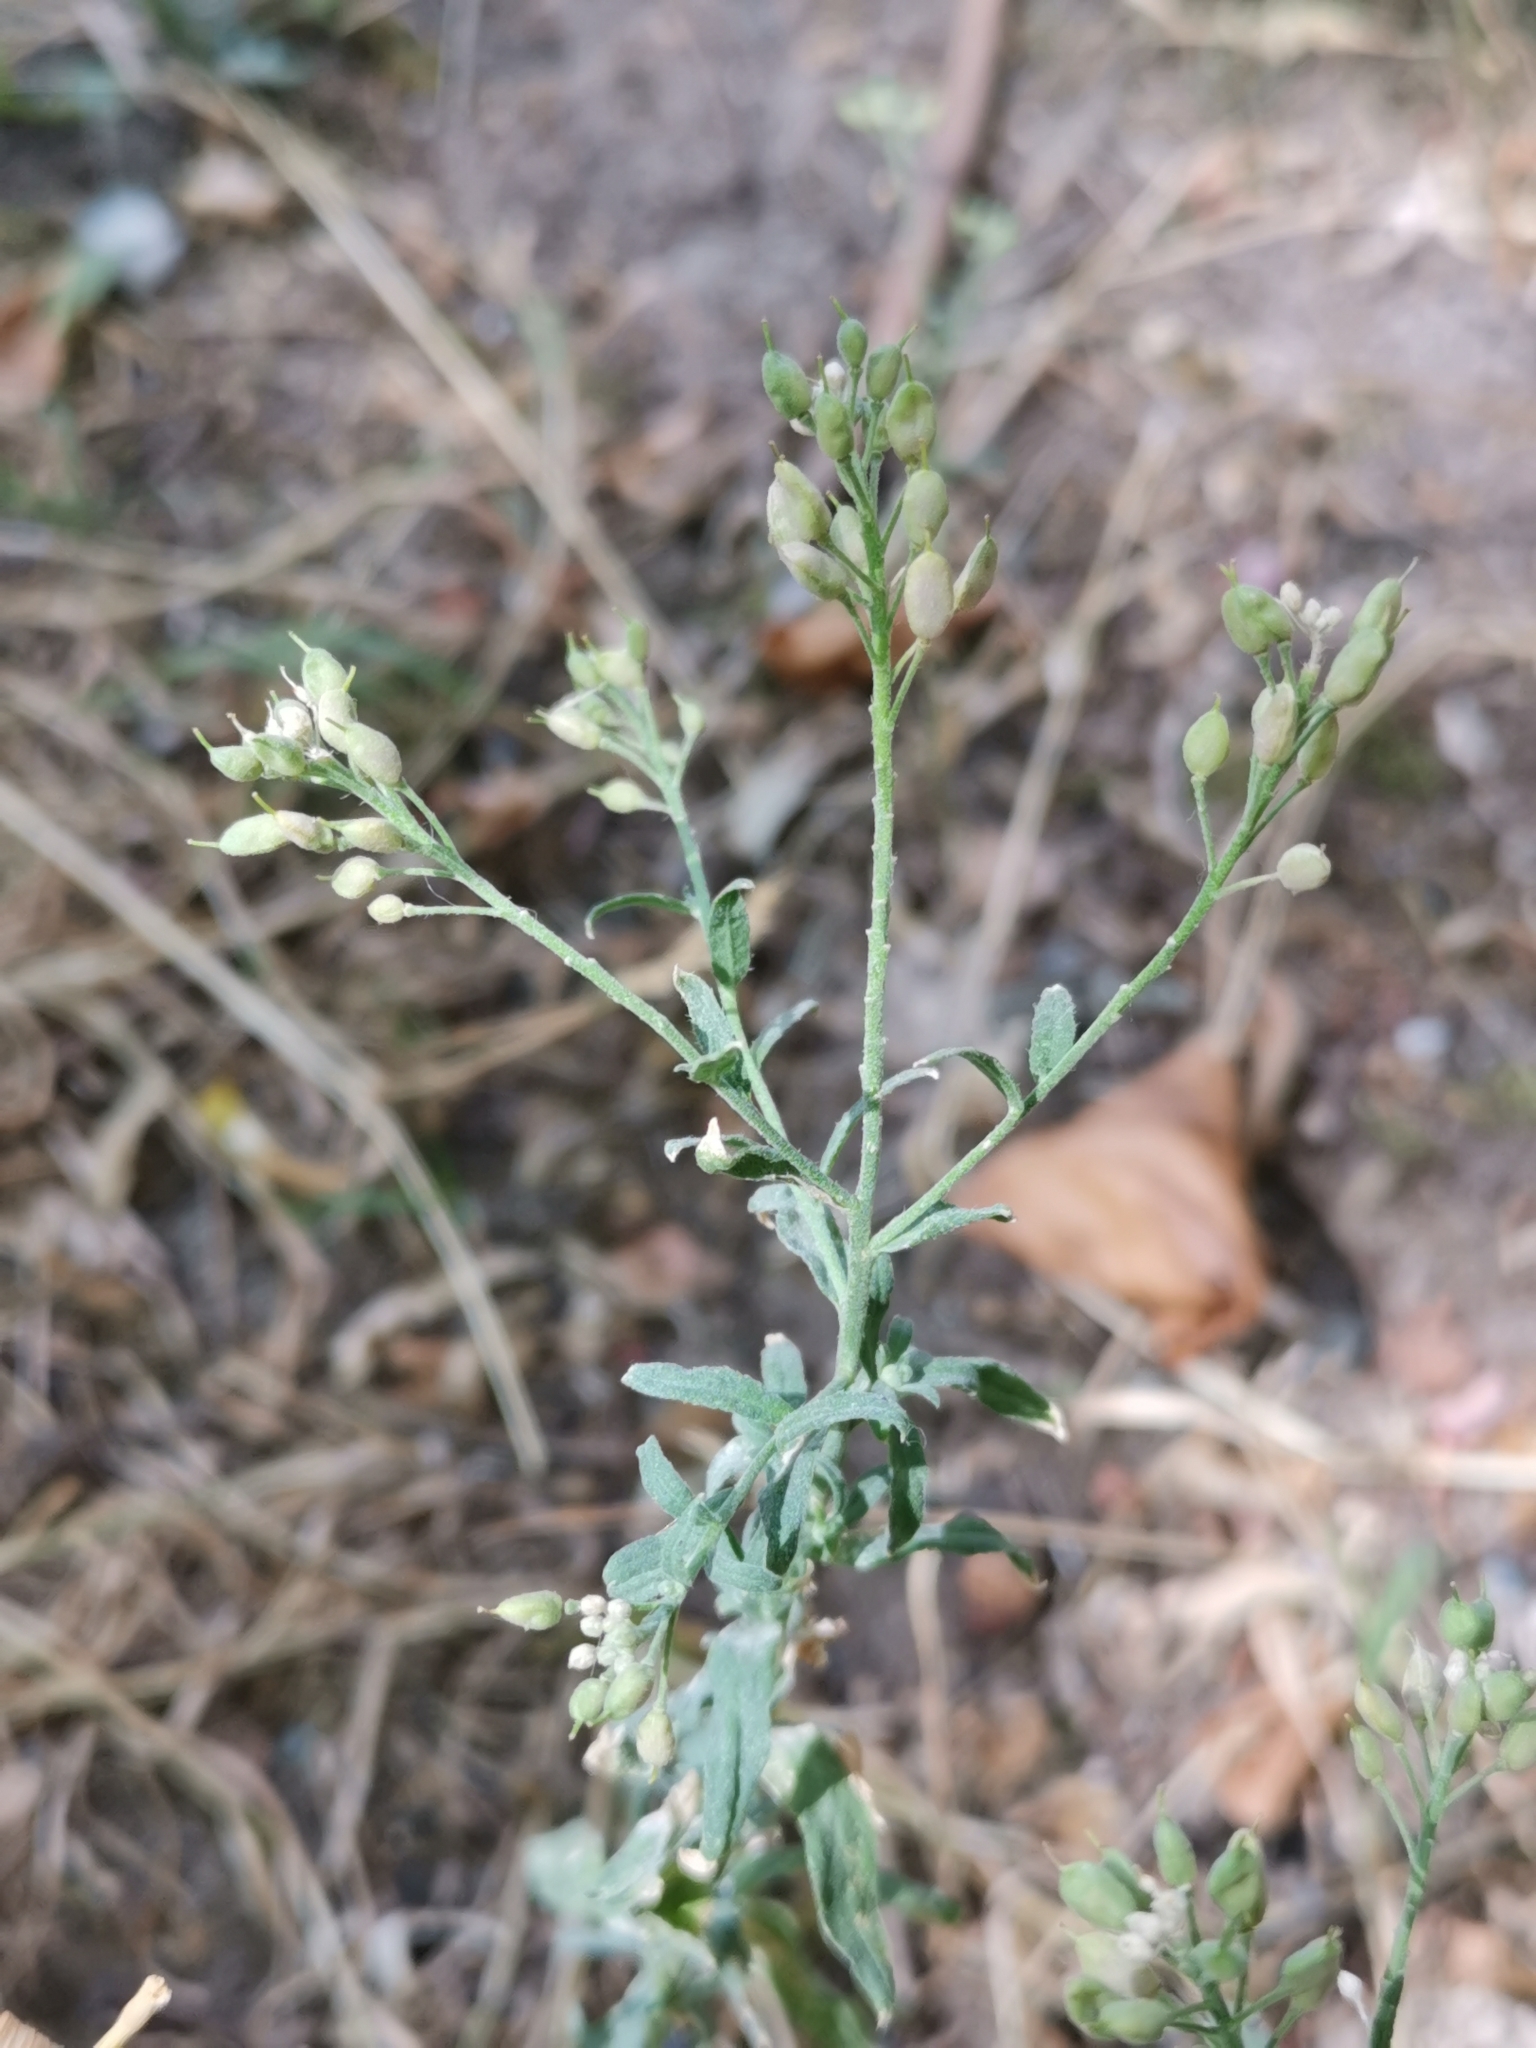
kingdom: Plantae
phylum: Tracheophyta
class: Magnoliopsida
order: Brassicales
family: Brassicaceae
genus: Berteroa
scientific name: Berteroa incana
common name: Hoary alison
